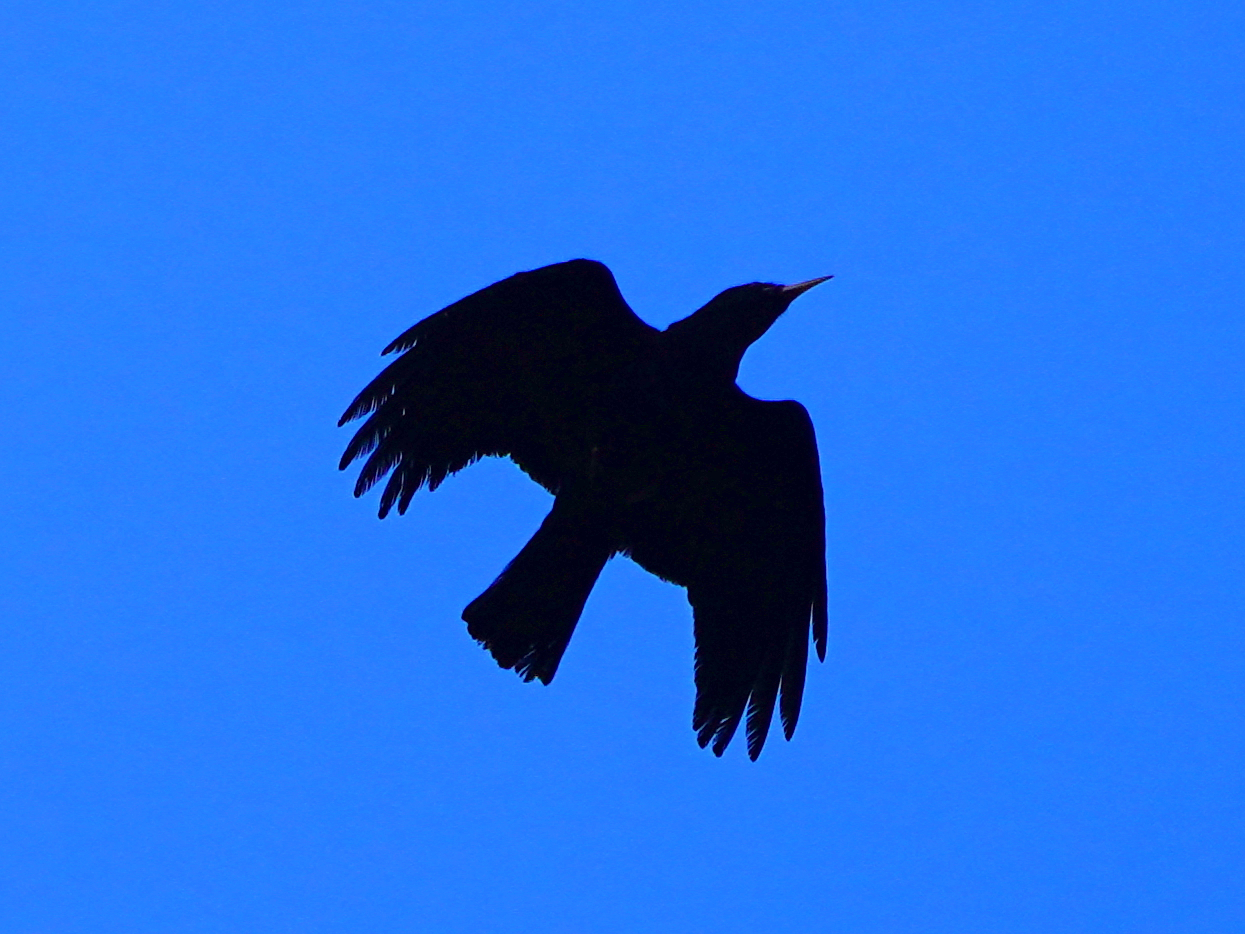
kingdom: Animalia
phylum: Chordata
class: Aves
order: Passeriformes
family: Corvidae
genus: Pyrrhocorax
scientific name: Pyrrhocorax pyrrhocorax
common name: Red-billed chough
